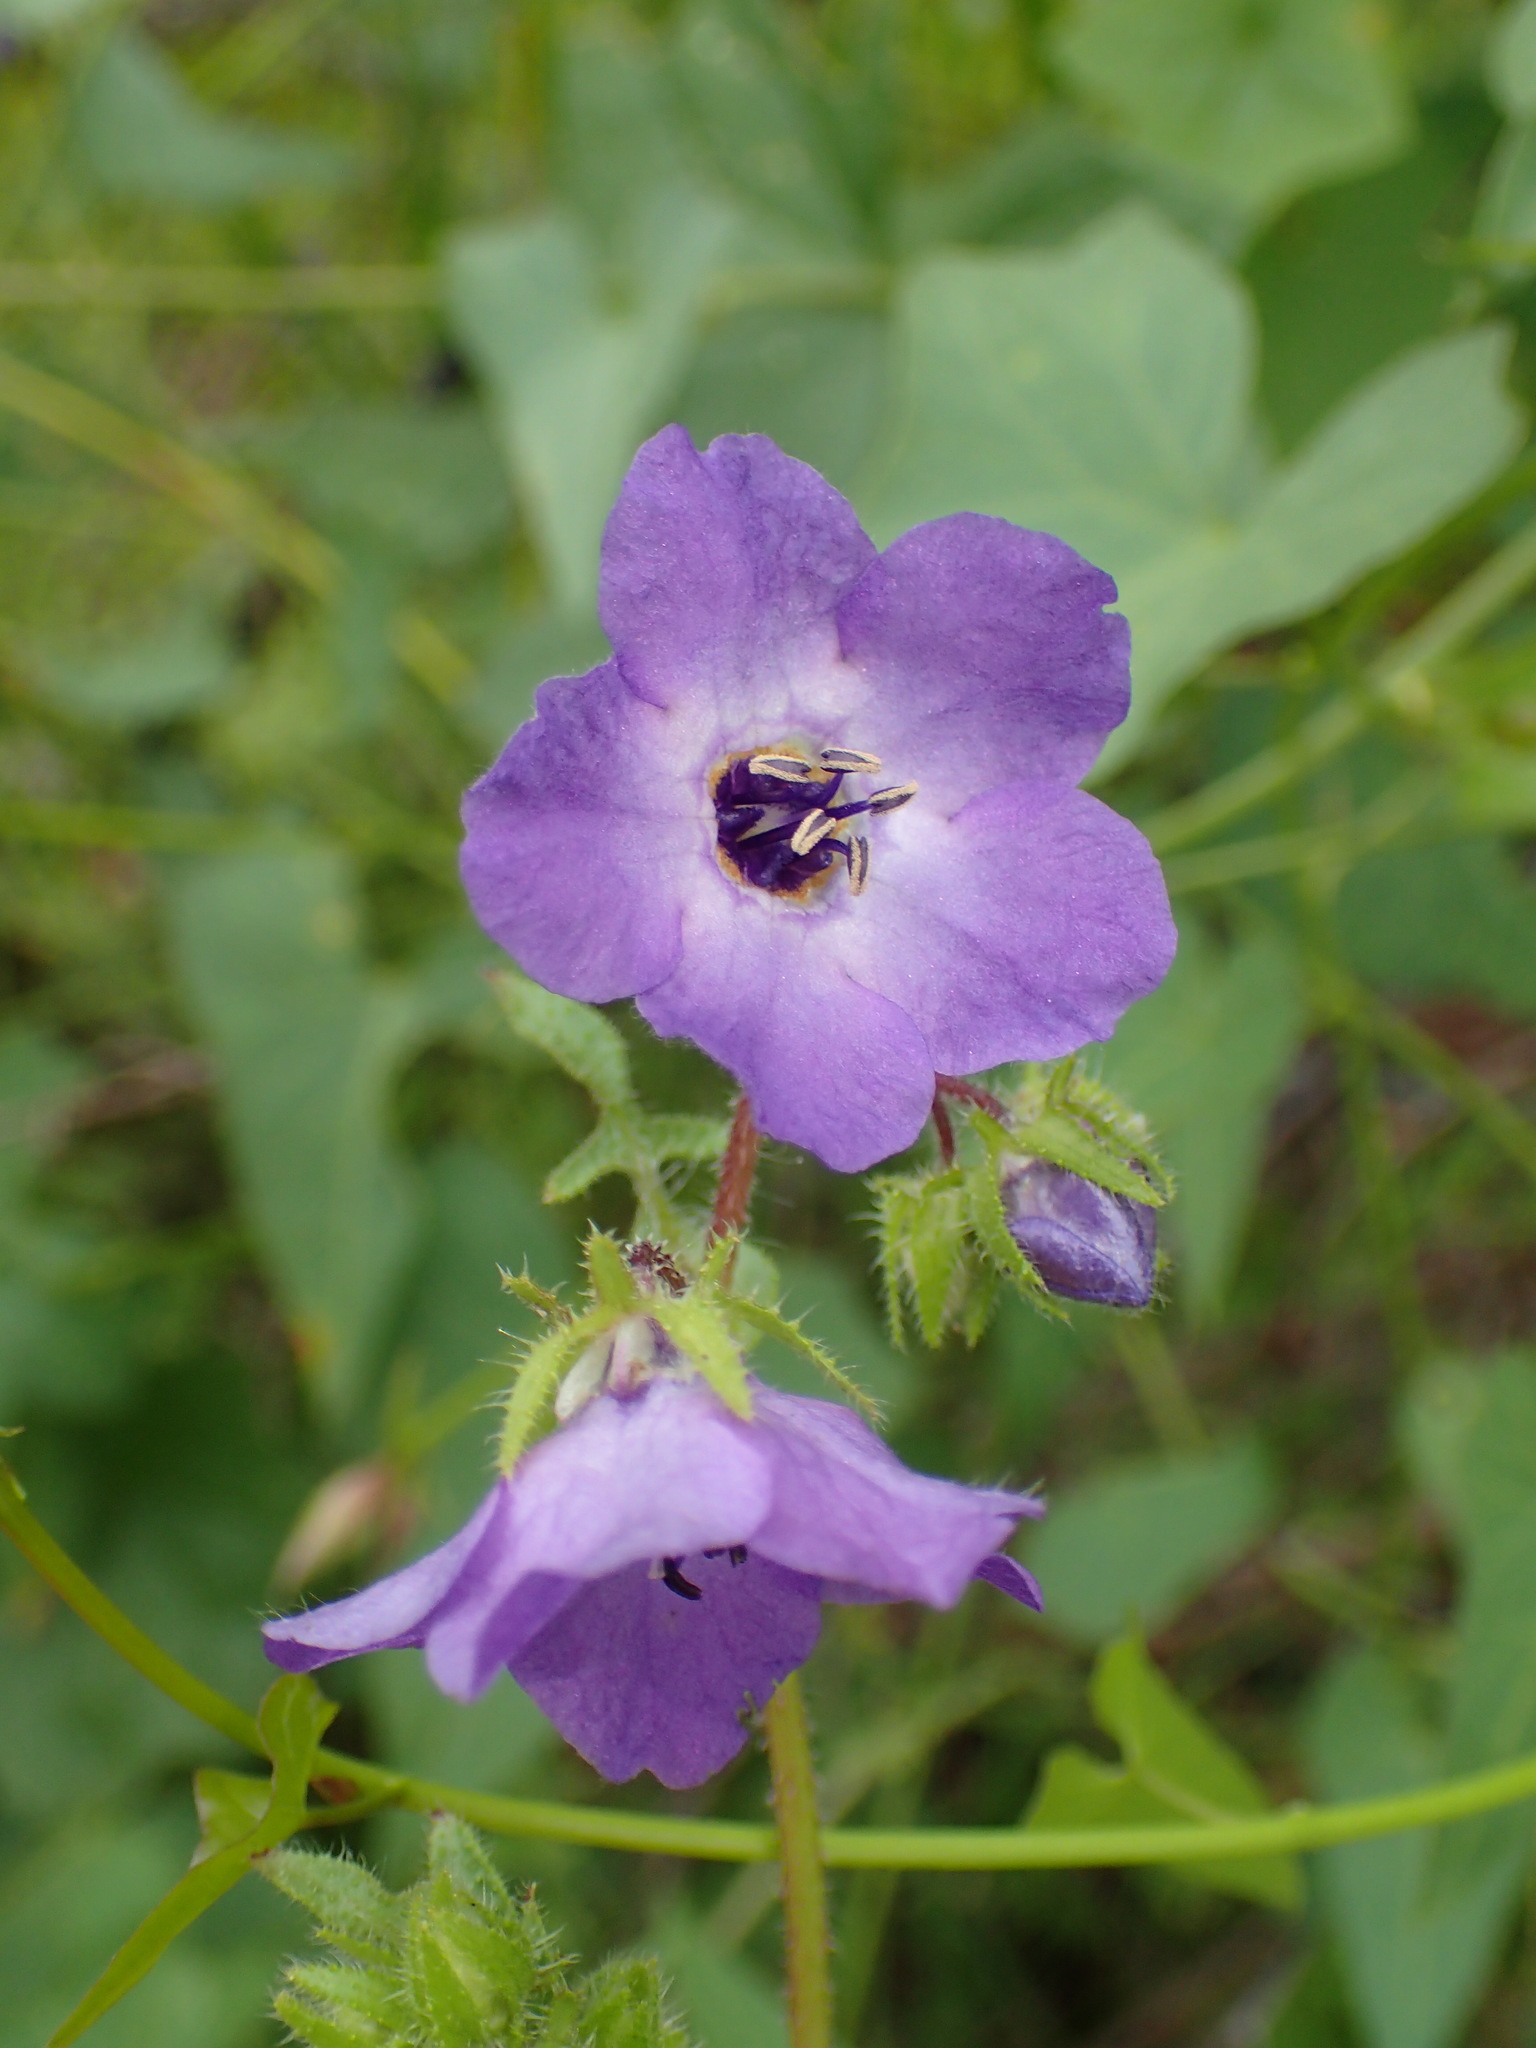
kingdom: Plantae
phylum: Tracheophyta
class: Magnoliopsida
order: Boraginales
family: Hydrophyllaceae
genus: Pholistoma
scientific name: Pholistoma auritum
